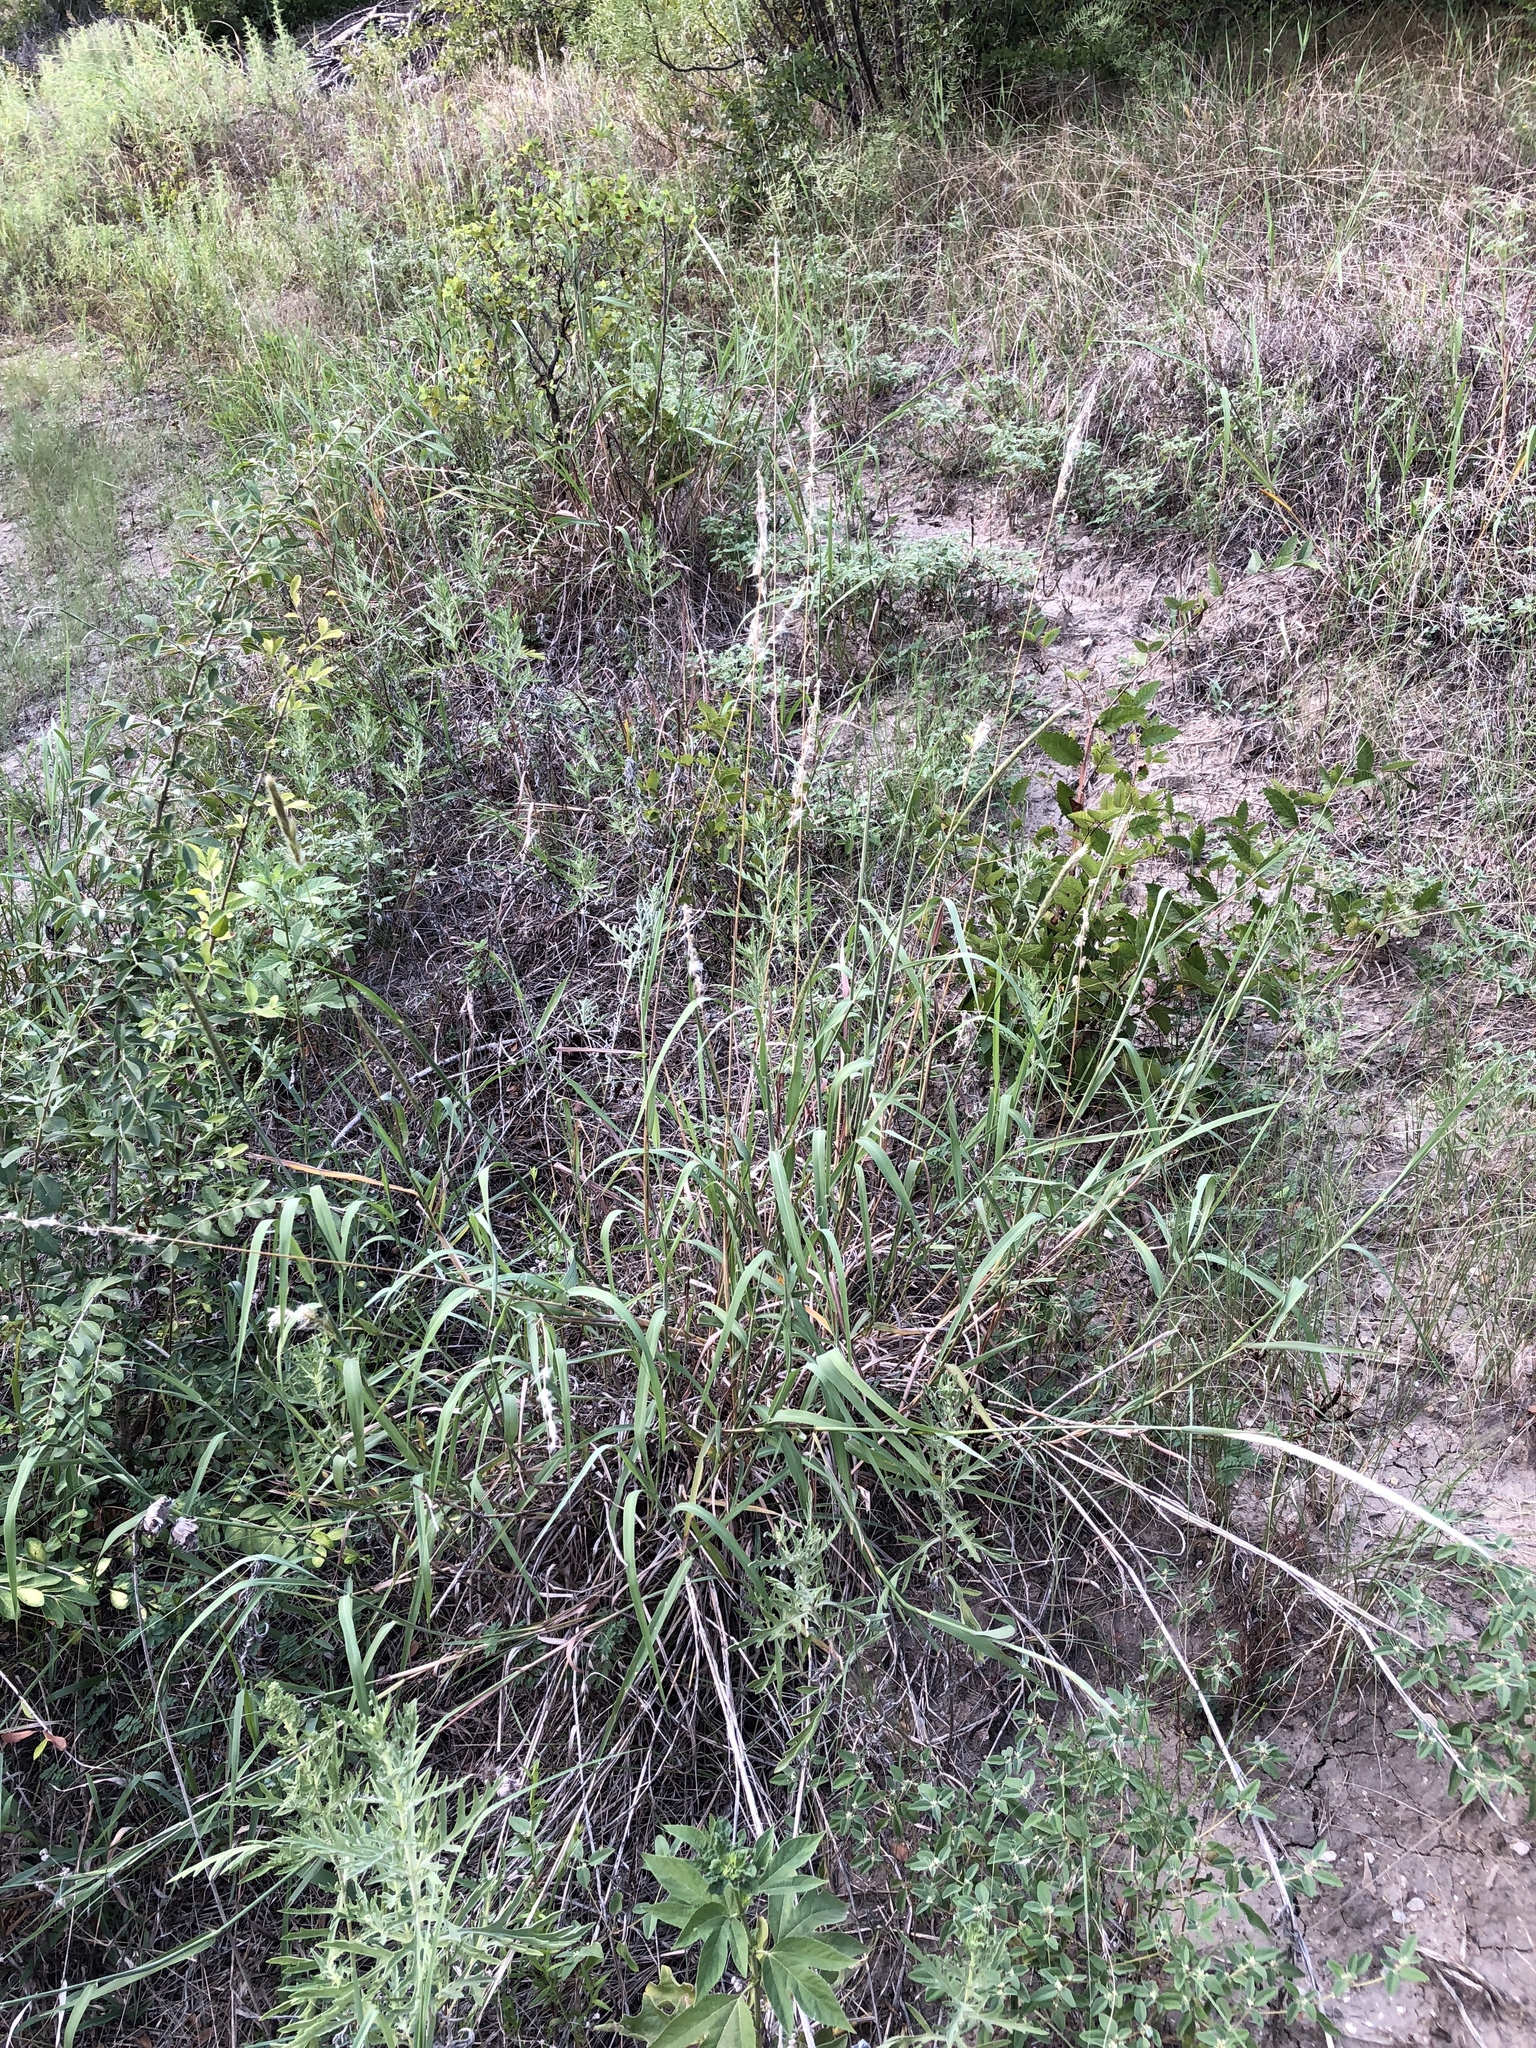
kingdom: Plantae
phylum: Tracheophyta
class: Liliopsida
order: Poales
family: Poaceae
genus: Bothriochloa
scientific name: Bothriochloa torreyana
